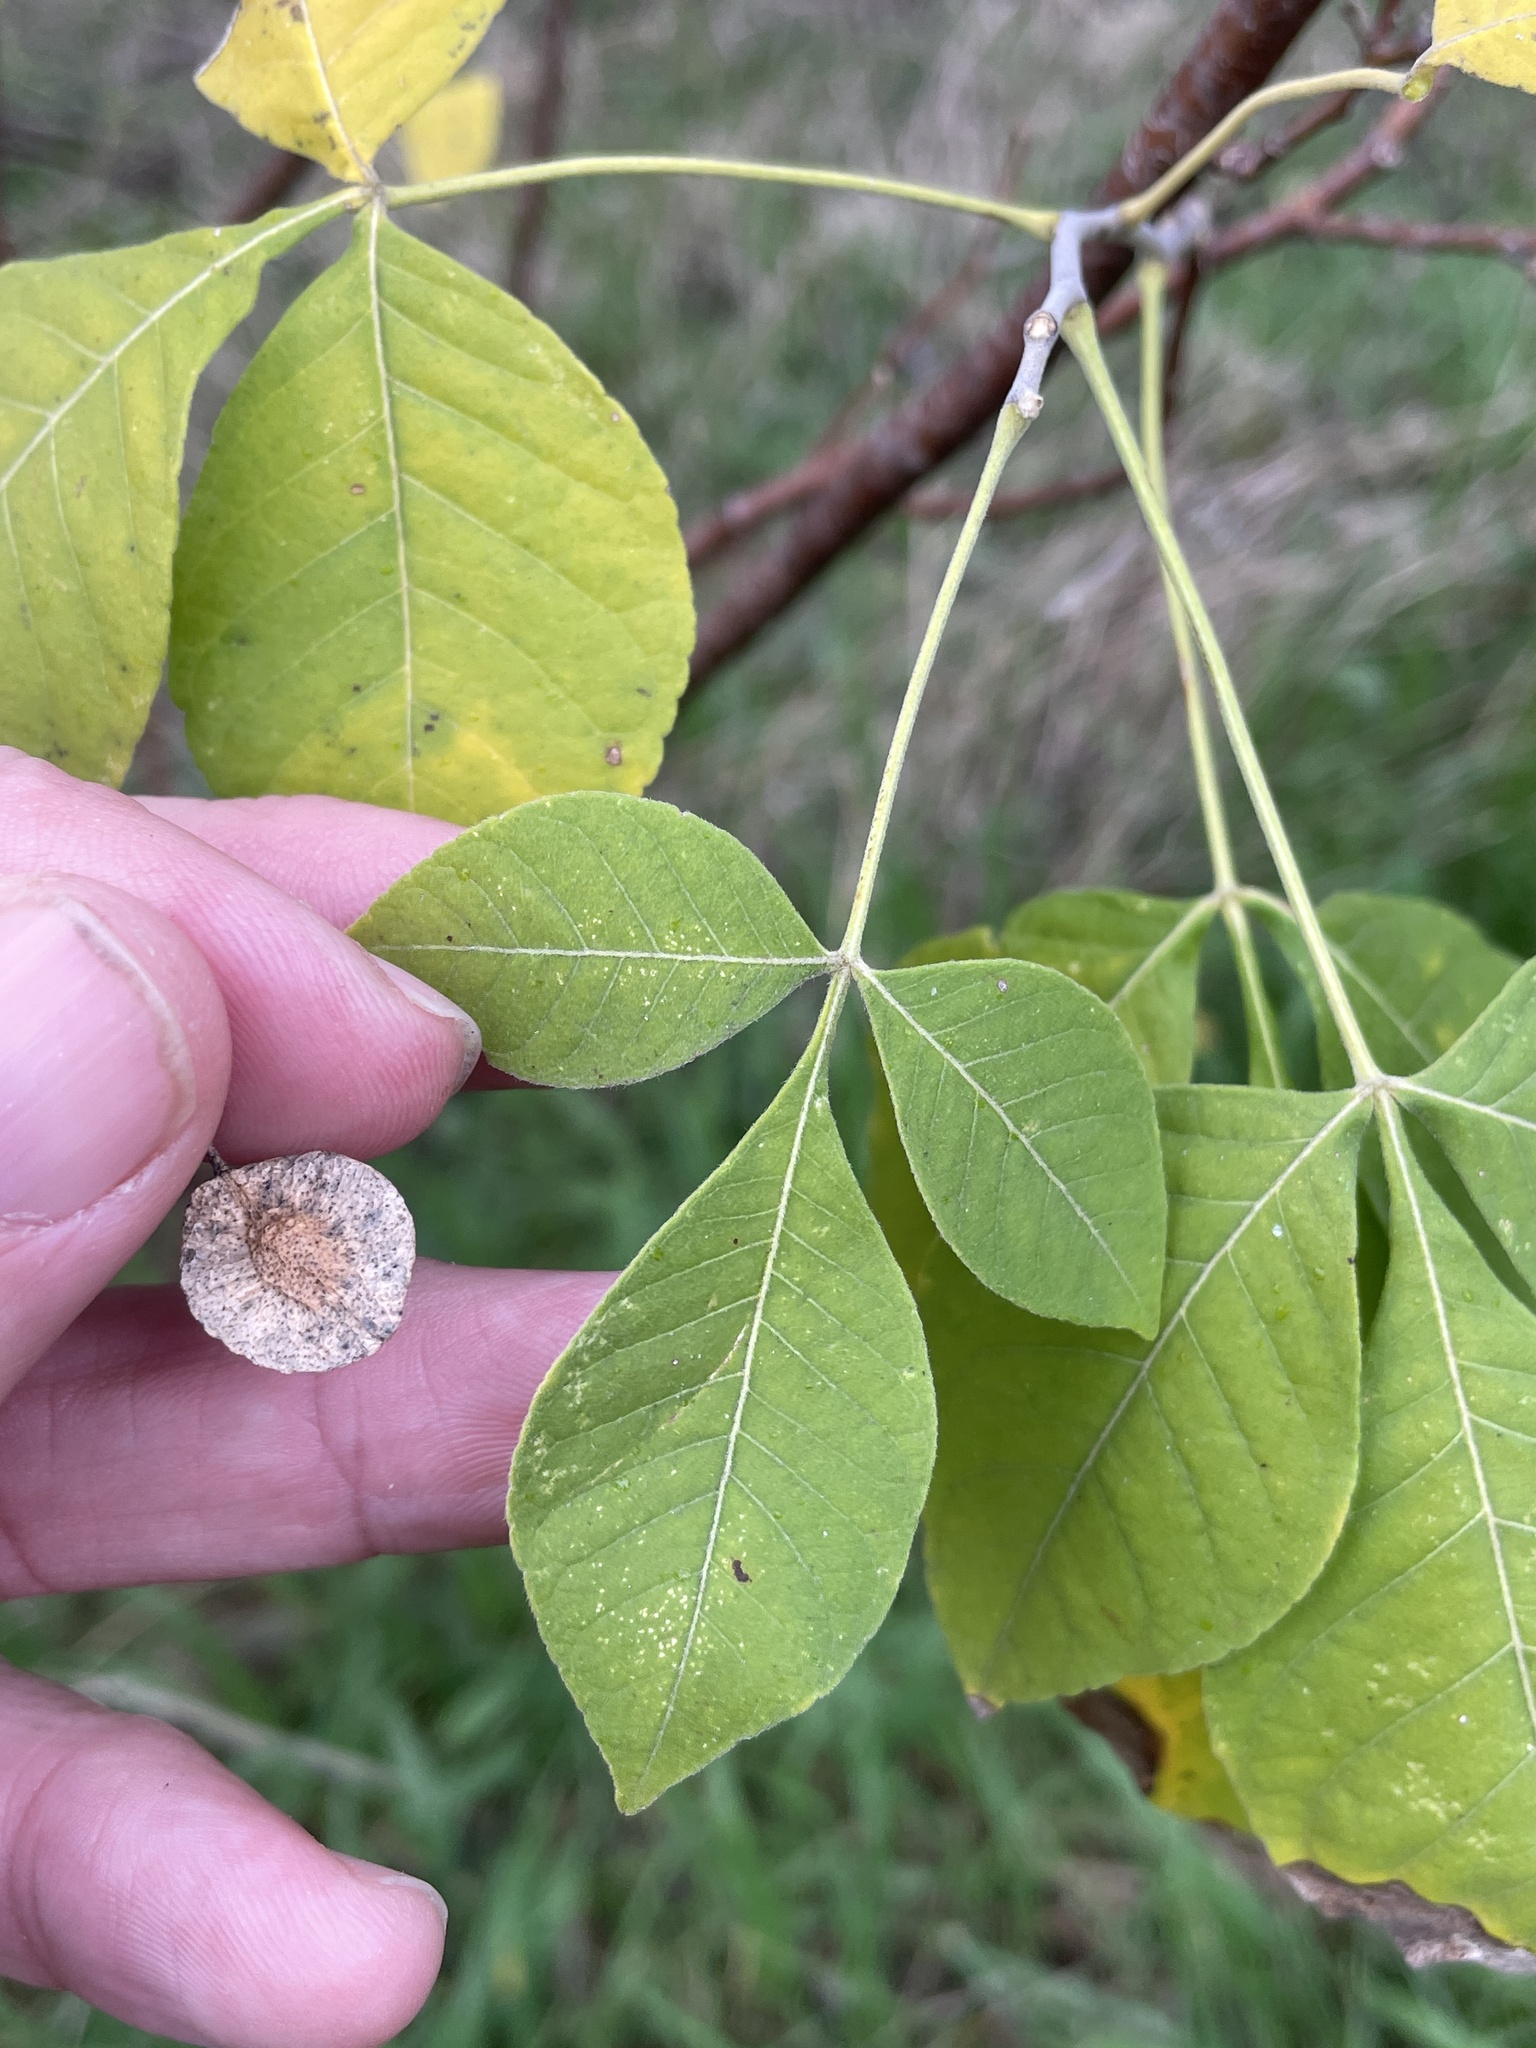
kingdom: Plantae
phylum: Tracheophyta
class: Magnoliopsida
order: Sapindales
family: Rutaceae
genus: Ptelea
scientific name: Ptelea trifoliata
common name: Common hop-tree
